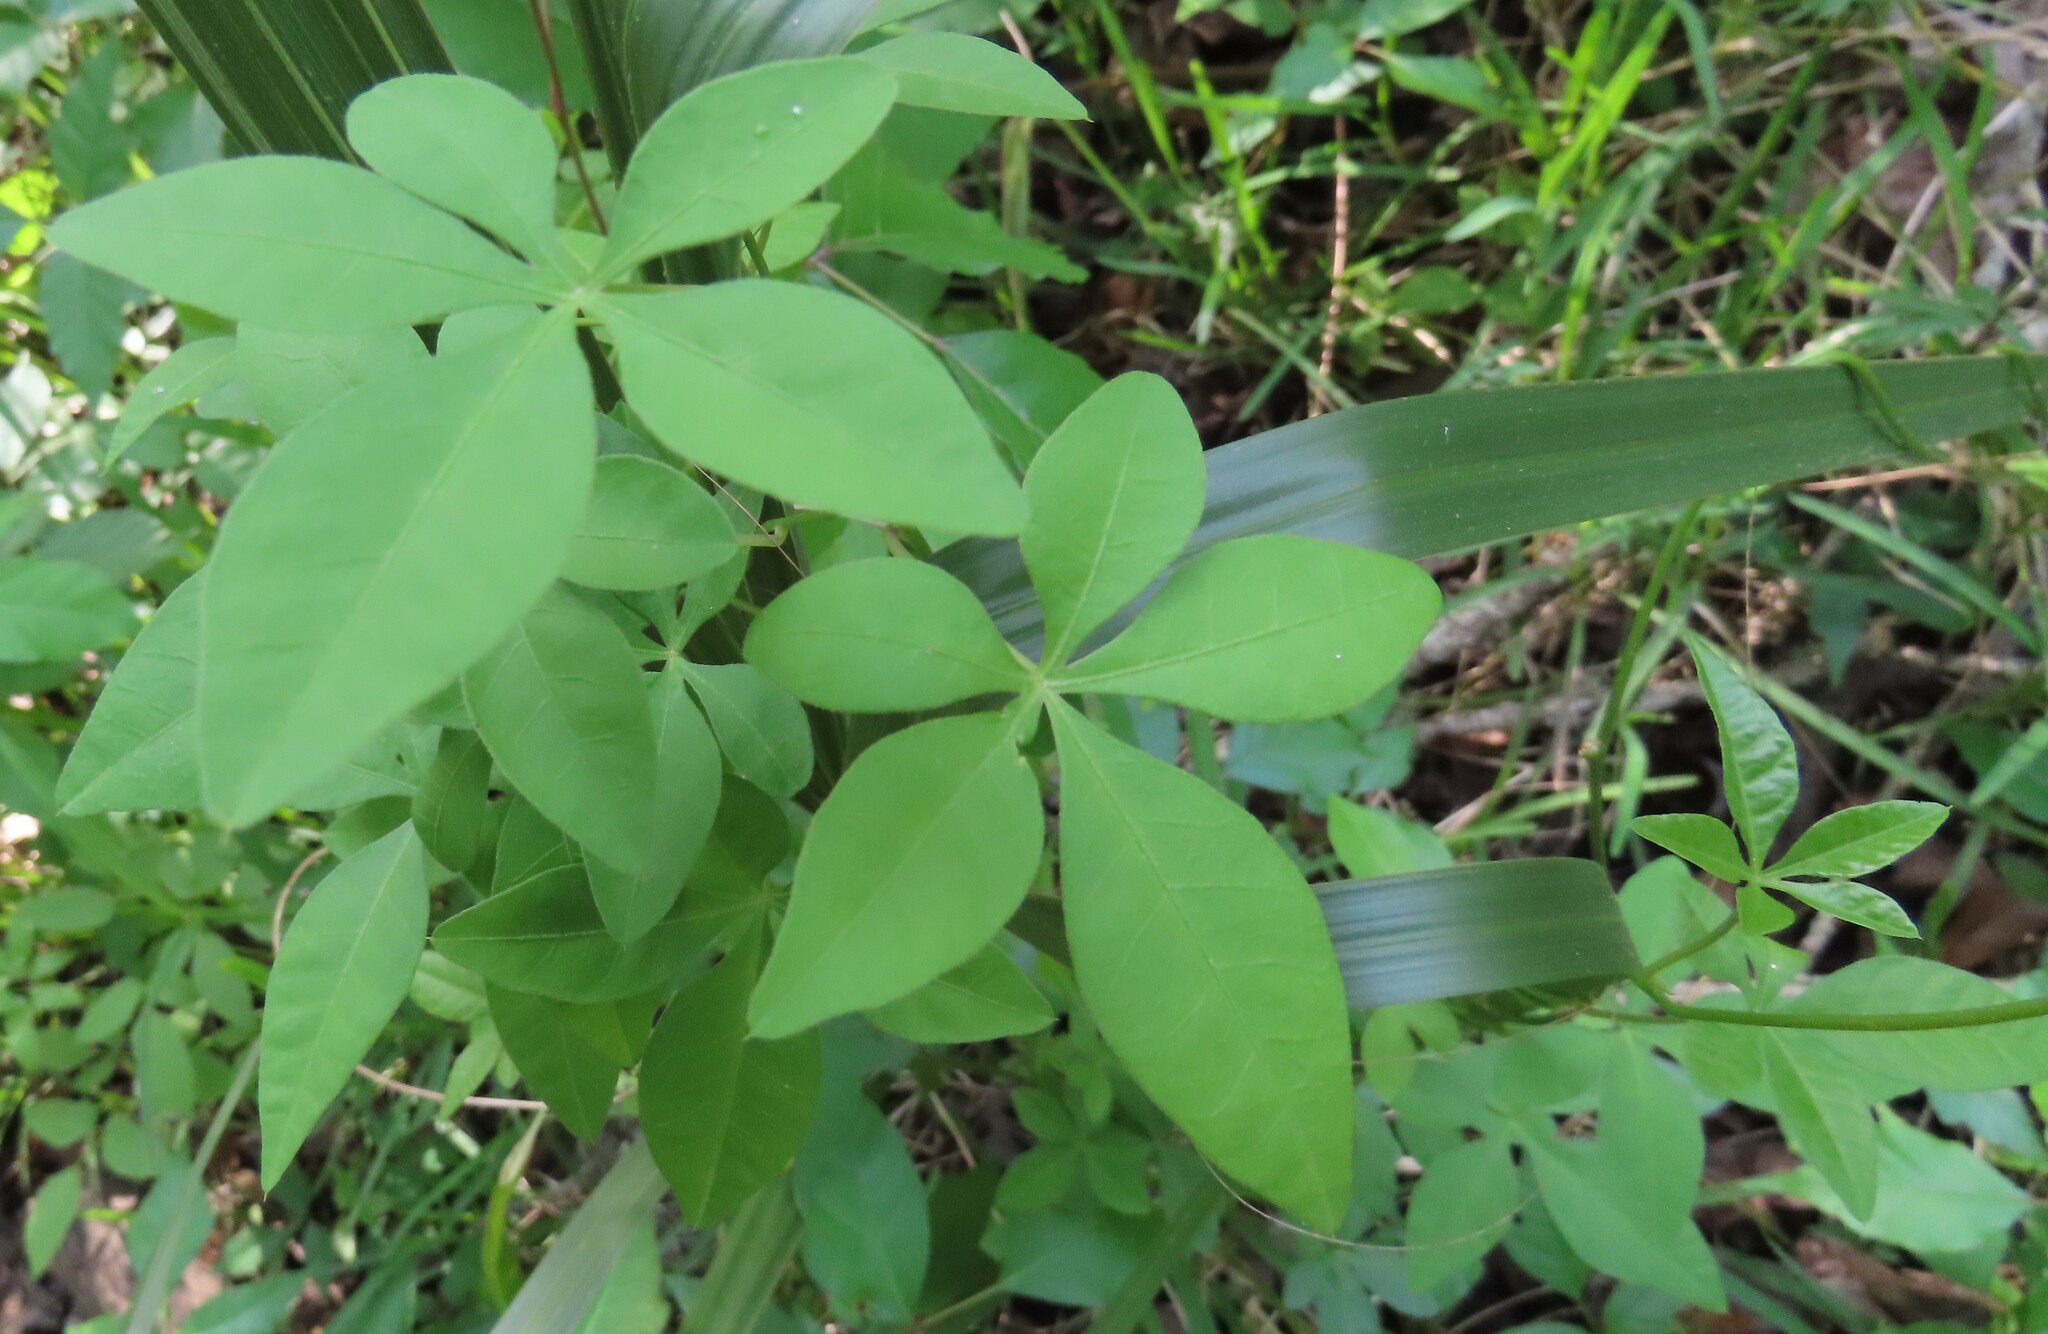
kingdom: Plantae
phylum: Tracheophyta
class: Magnoliopsida
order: Solanales
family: Convolvulaceae
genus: Ipomoea
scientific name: Ipomoea cairica
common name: Mile a minute vine
